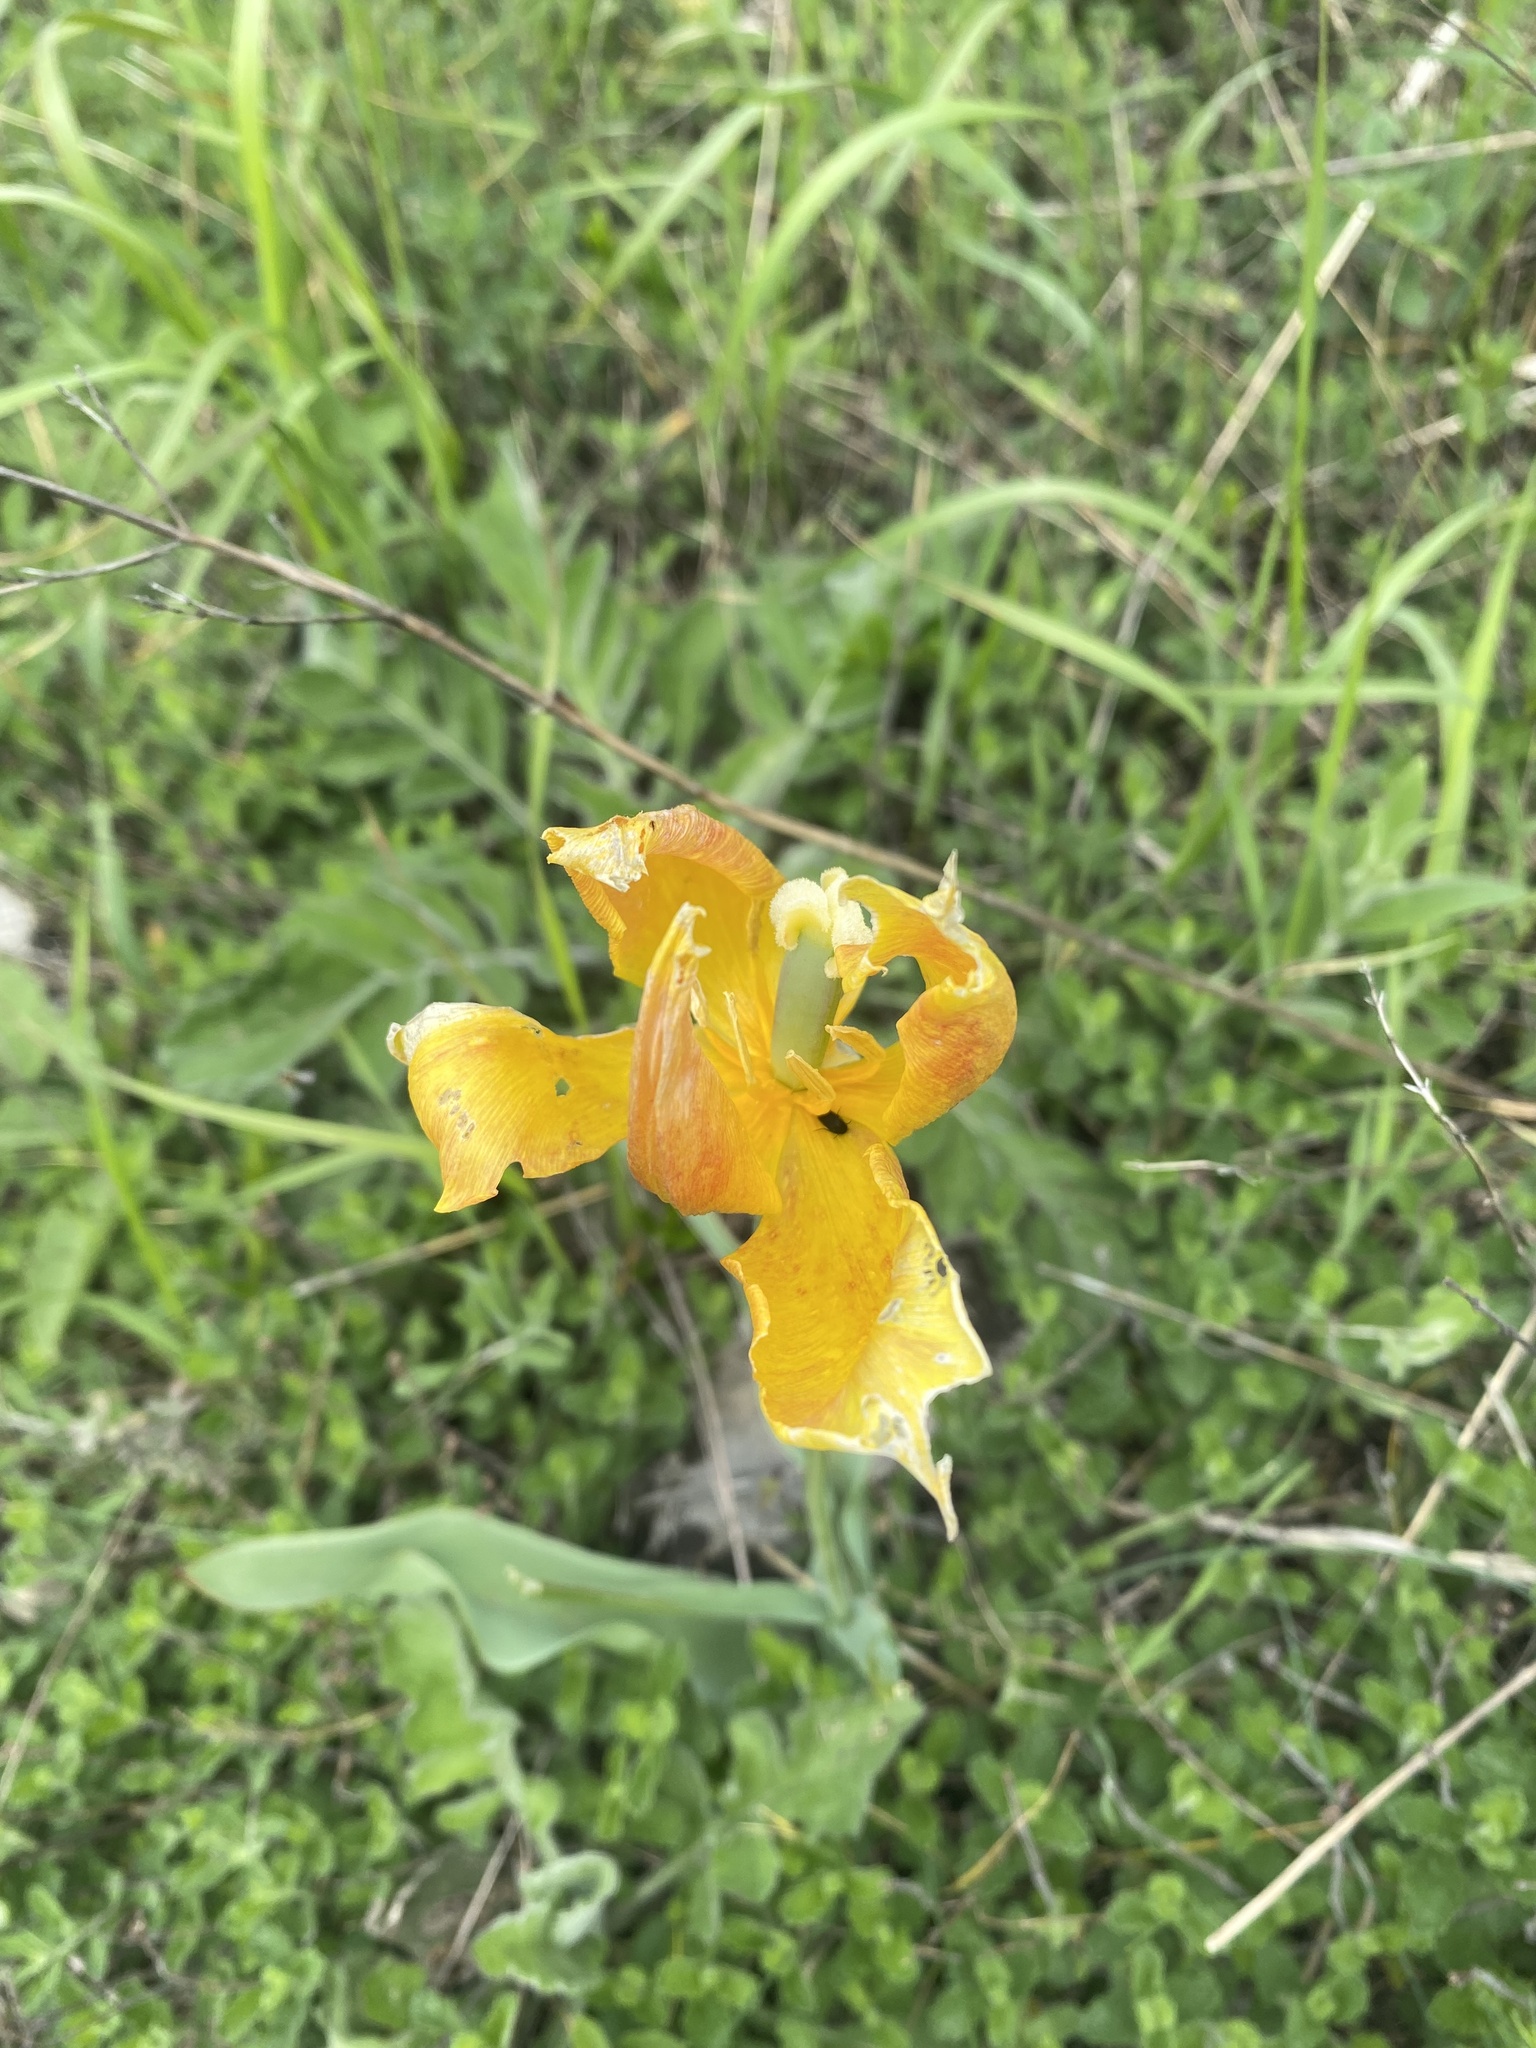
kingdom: Plantae
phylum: Tracheophyta
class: Liliopsida
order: Liliales
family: Liliaceae
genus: Tulipa
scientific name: Tulipa suaveolens
